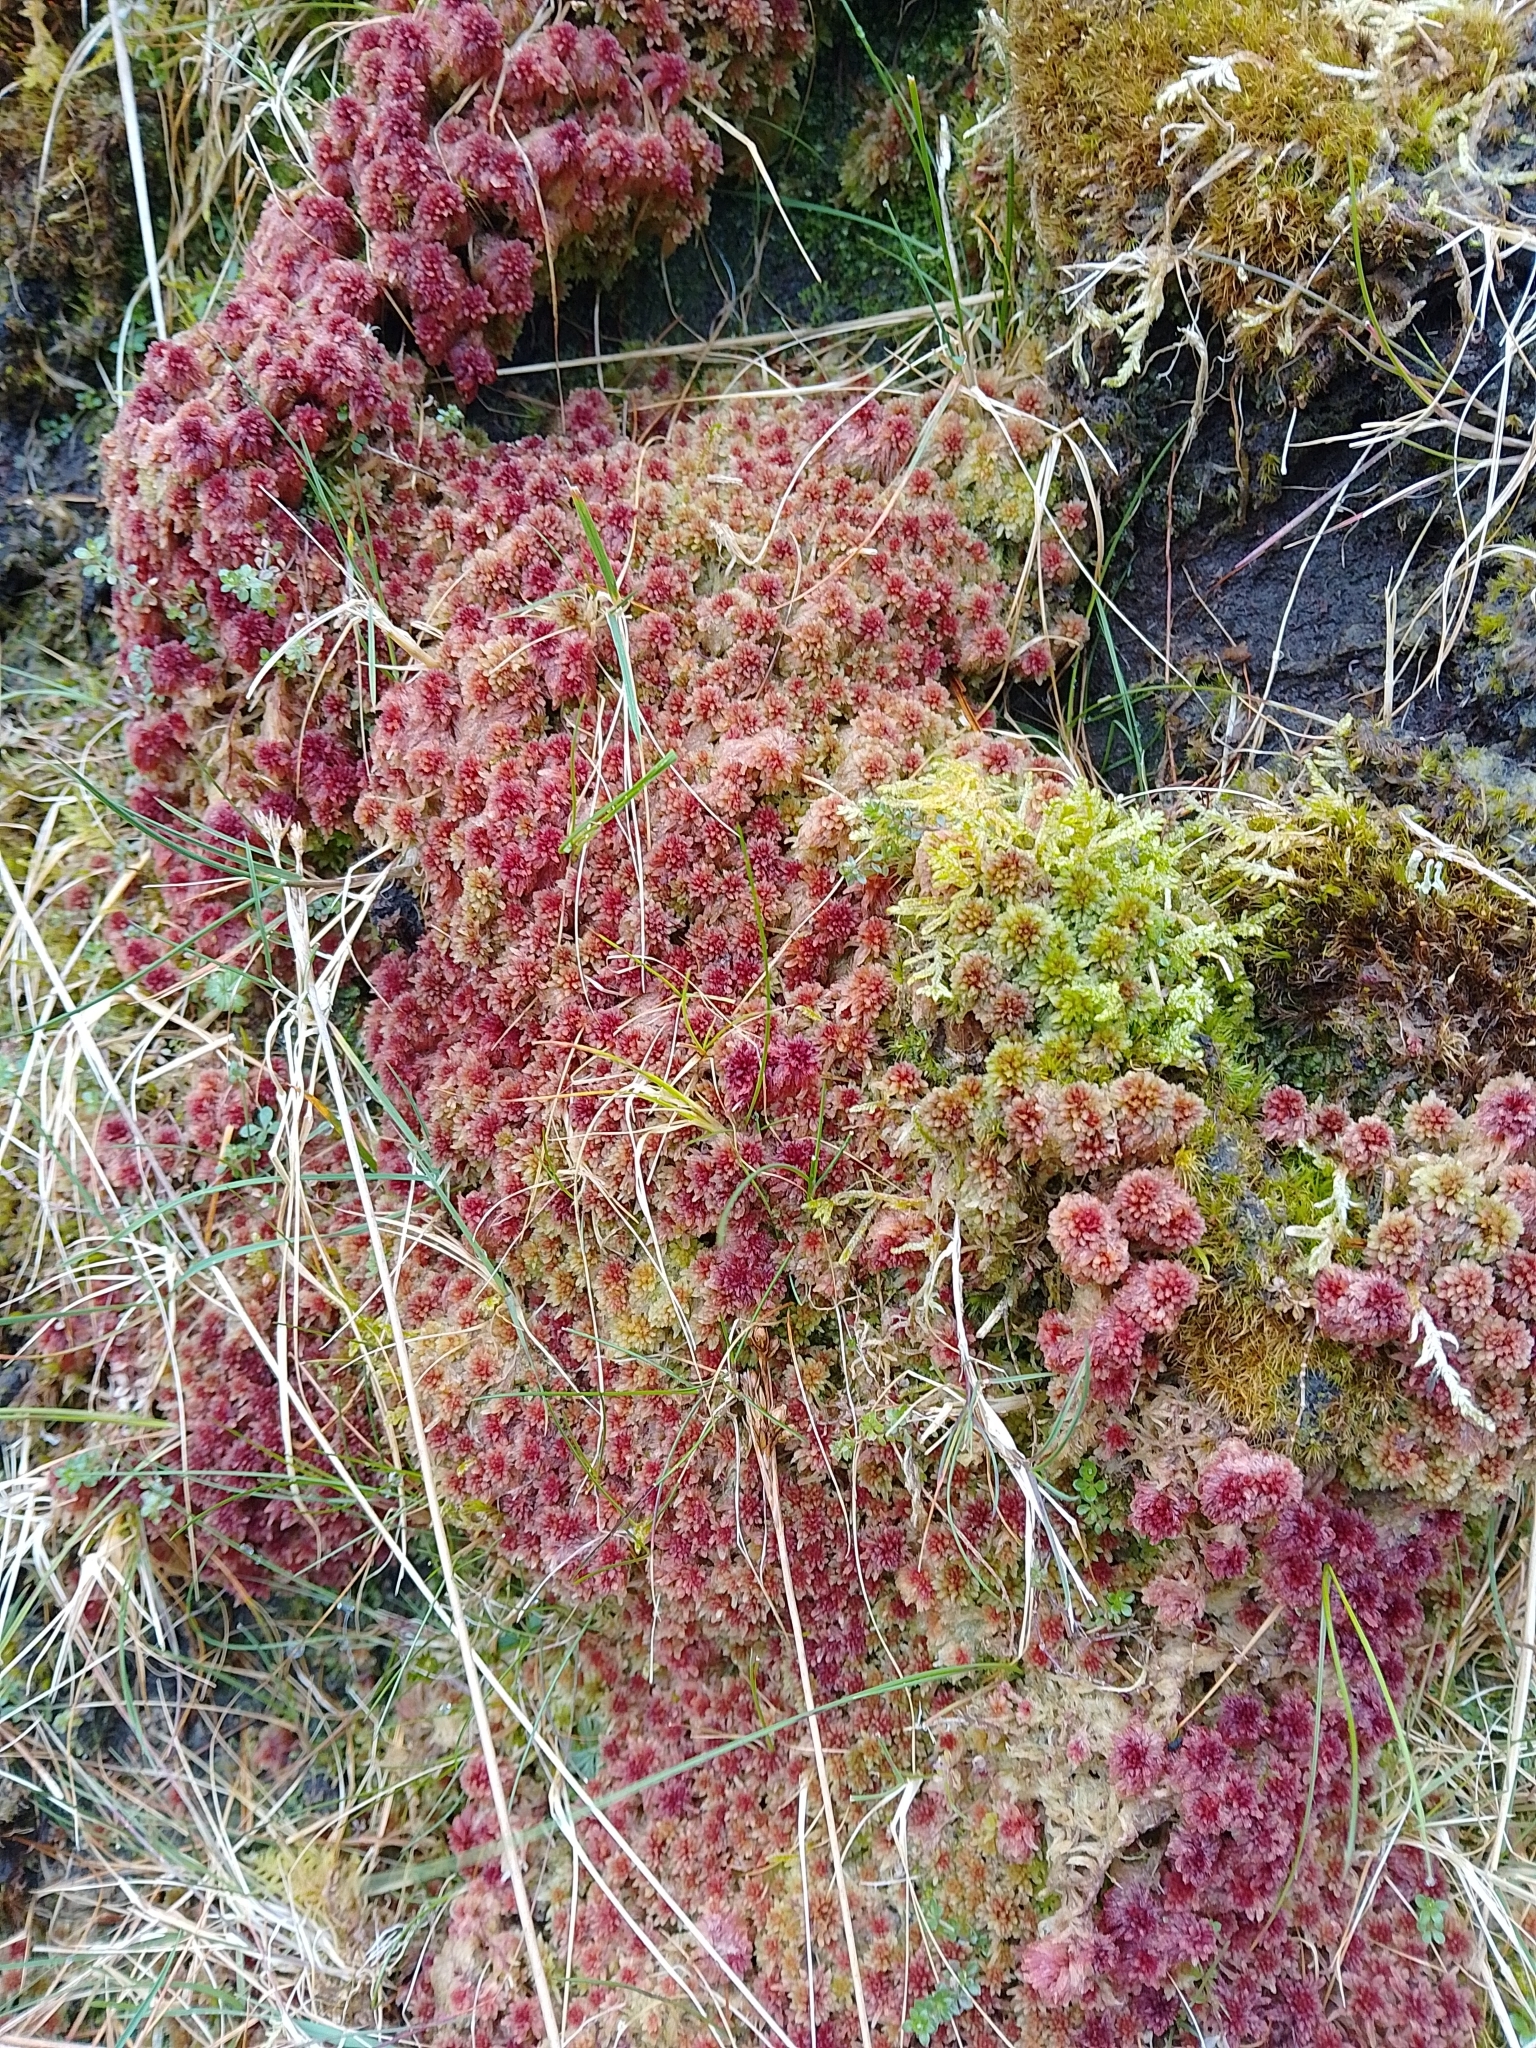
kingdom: Plantae
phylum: Bryophyta
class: Sphagnopsida
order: Sphagnales
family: Sphagnaceae
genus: Sphagnum
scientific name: Sphagnum capillifolium
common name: Small red peat moss
